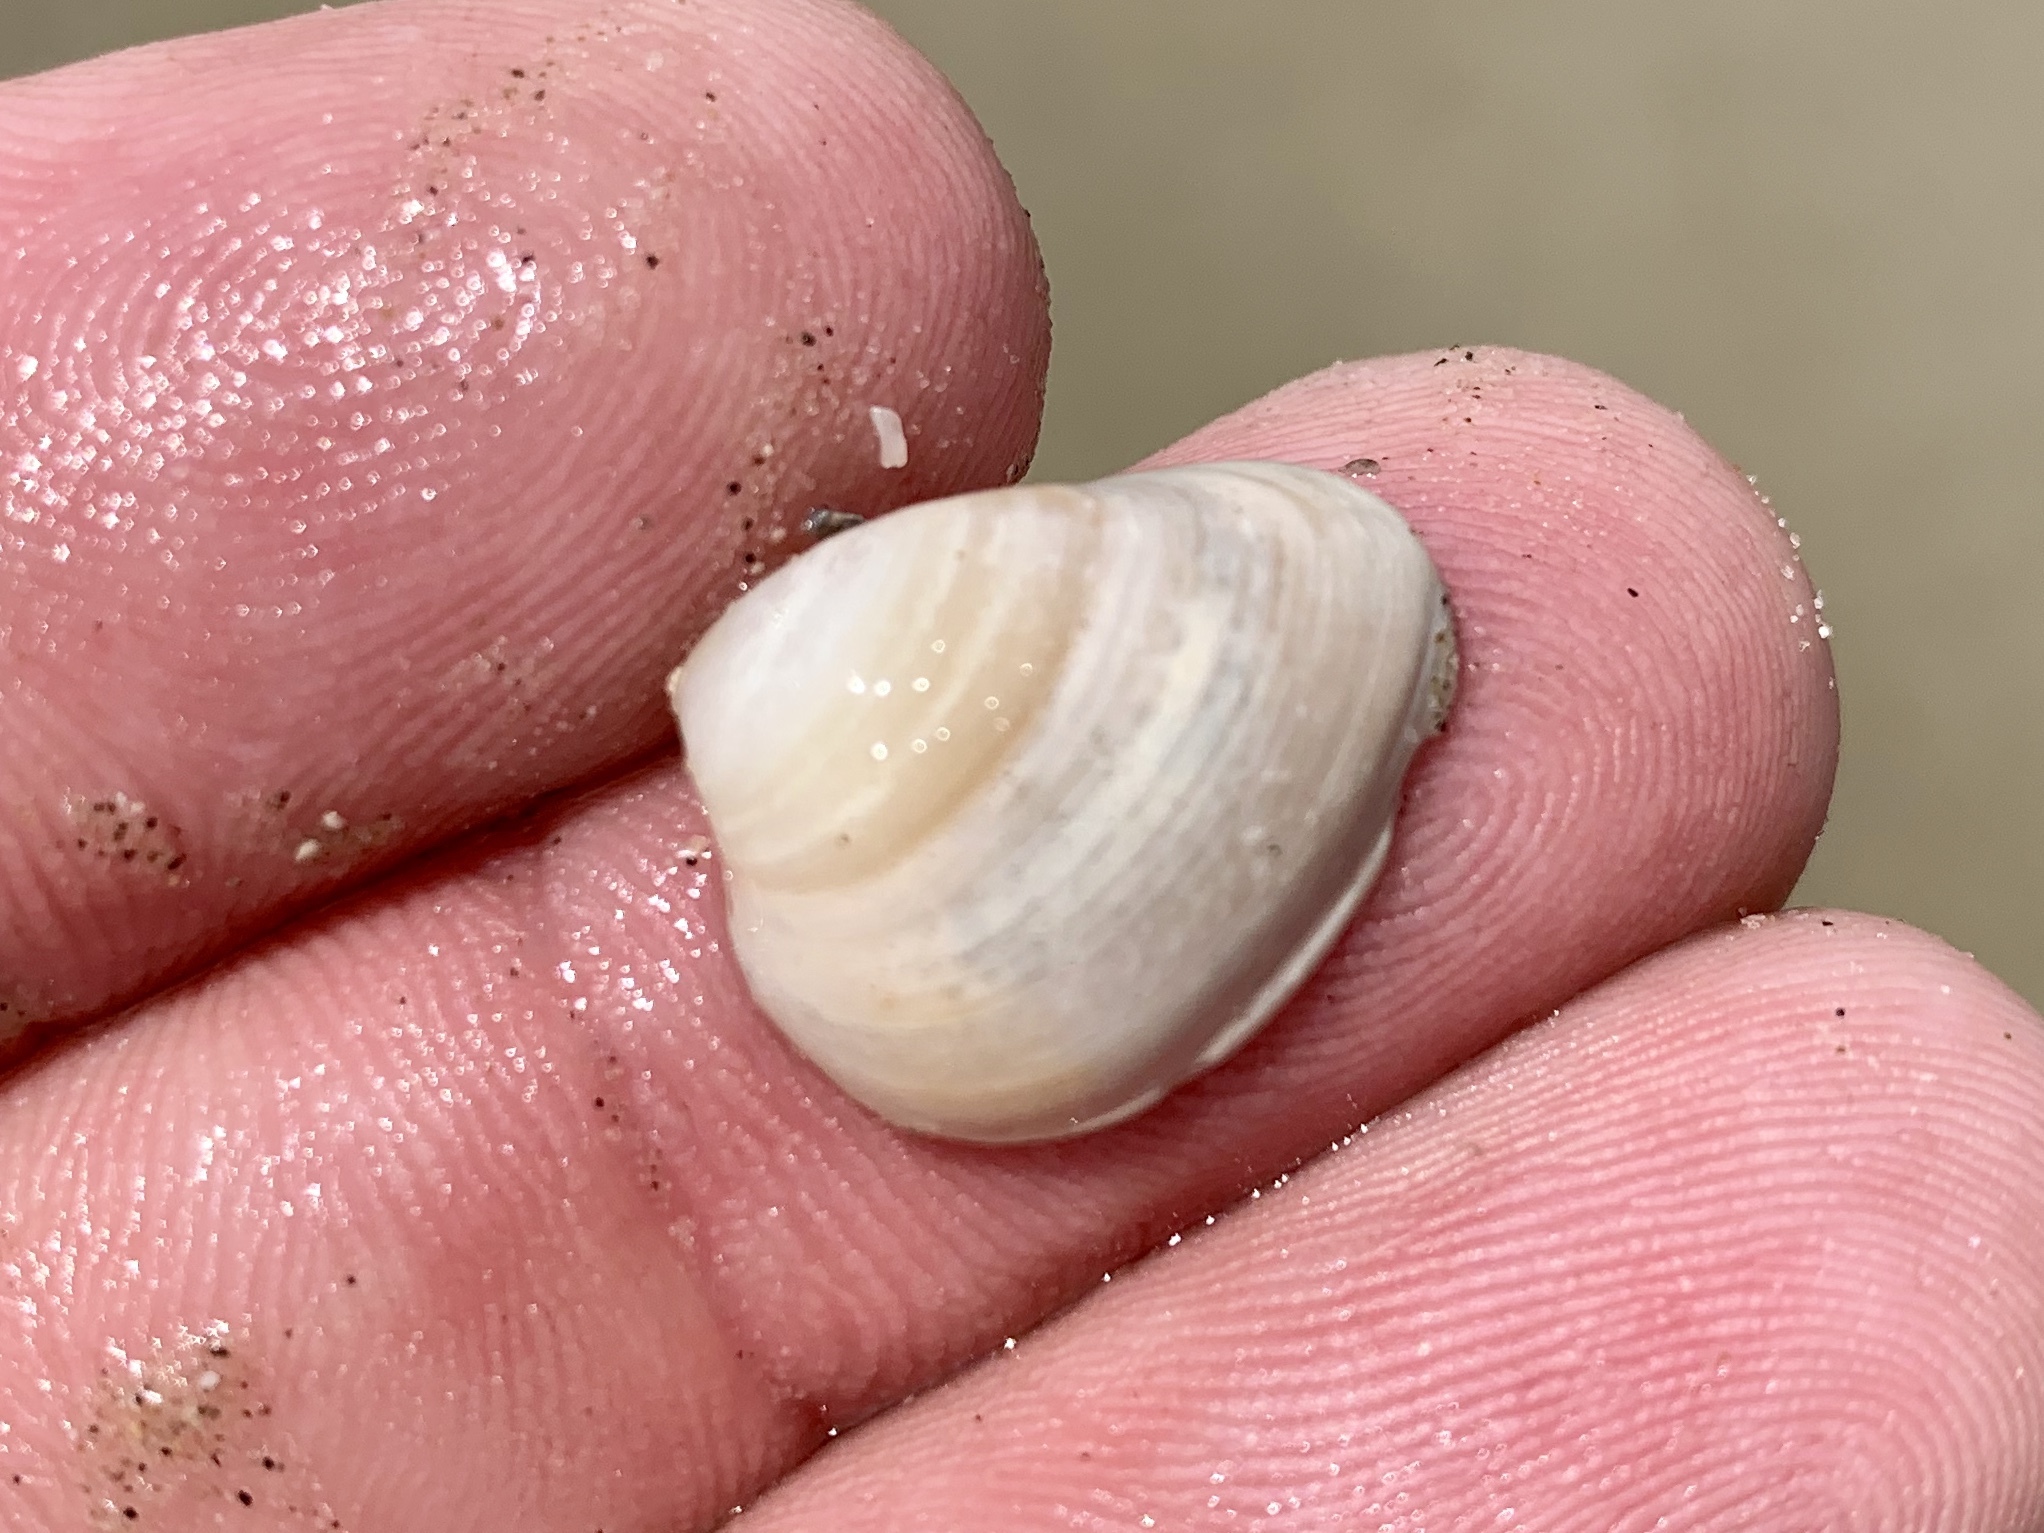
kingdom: Animalia
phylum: Mollusca
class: Bivalvia
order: Venerida
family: Mactridae
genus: Rangia
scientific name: Rangia cuneata
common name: Atlantic rangia
